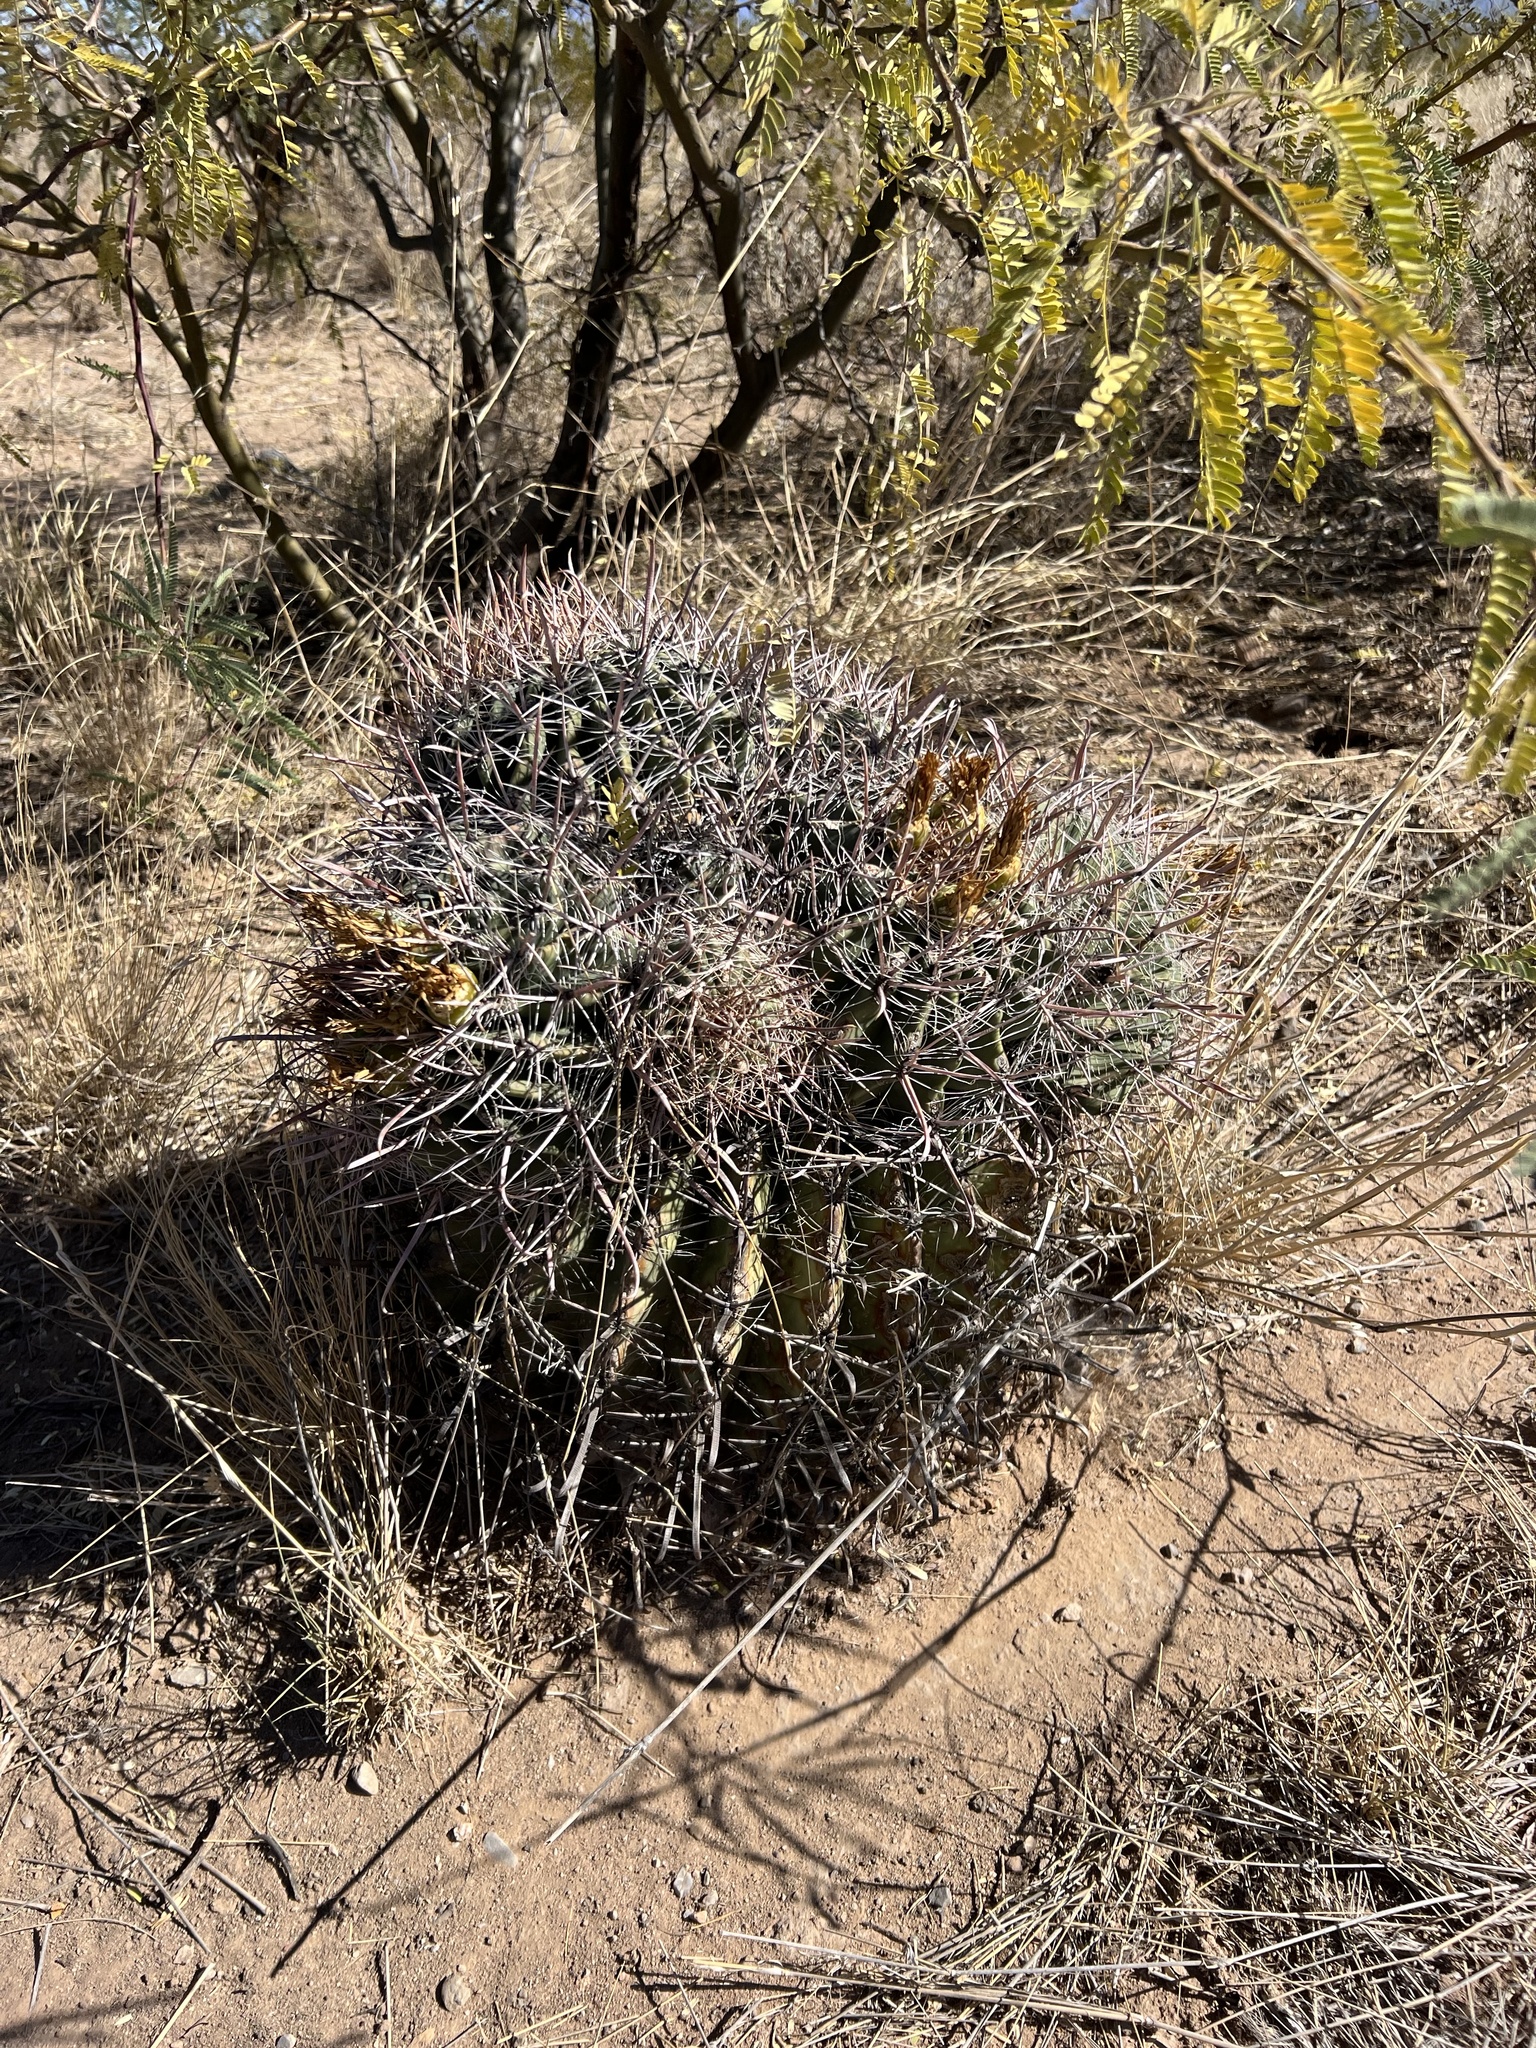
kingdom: Plantae
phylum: Tracheophyta
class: Magnoliopsida
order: Caryophyllales
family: Cactaceae
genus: Ferocactus
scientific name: Ferocactus wislizeni
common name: Candy barrel cactus
